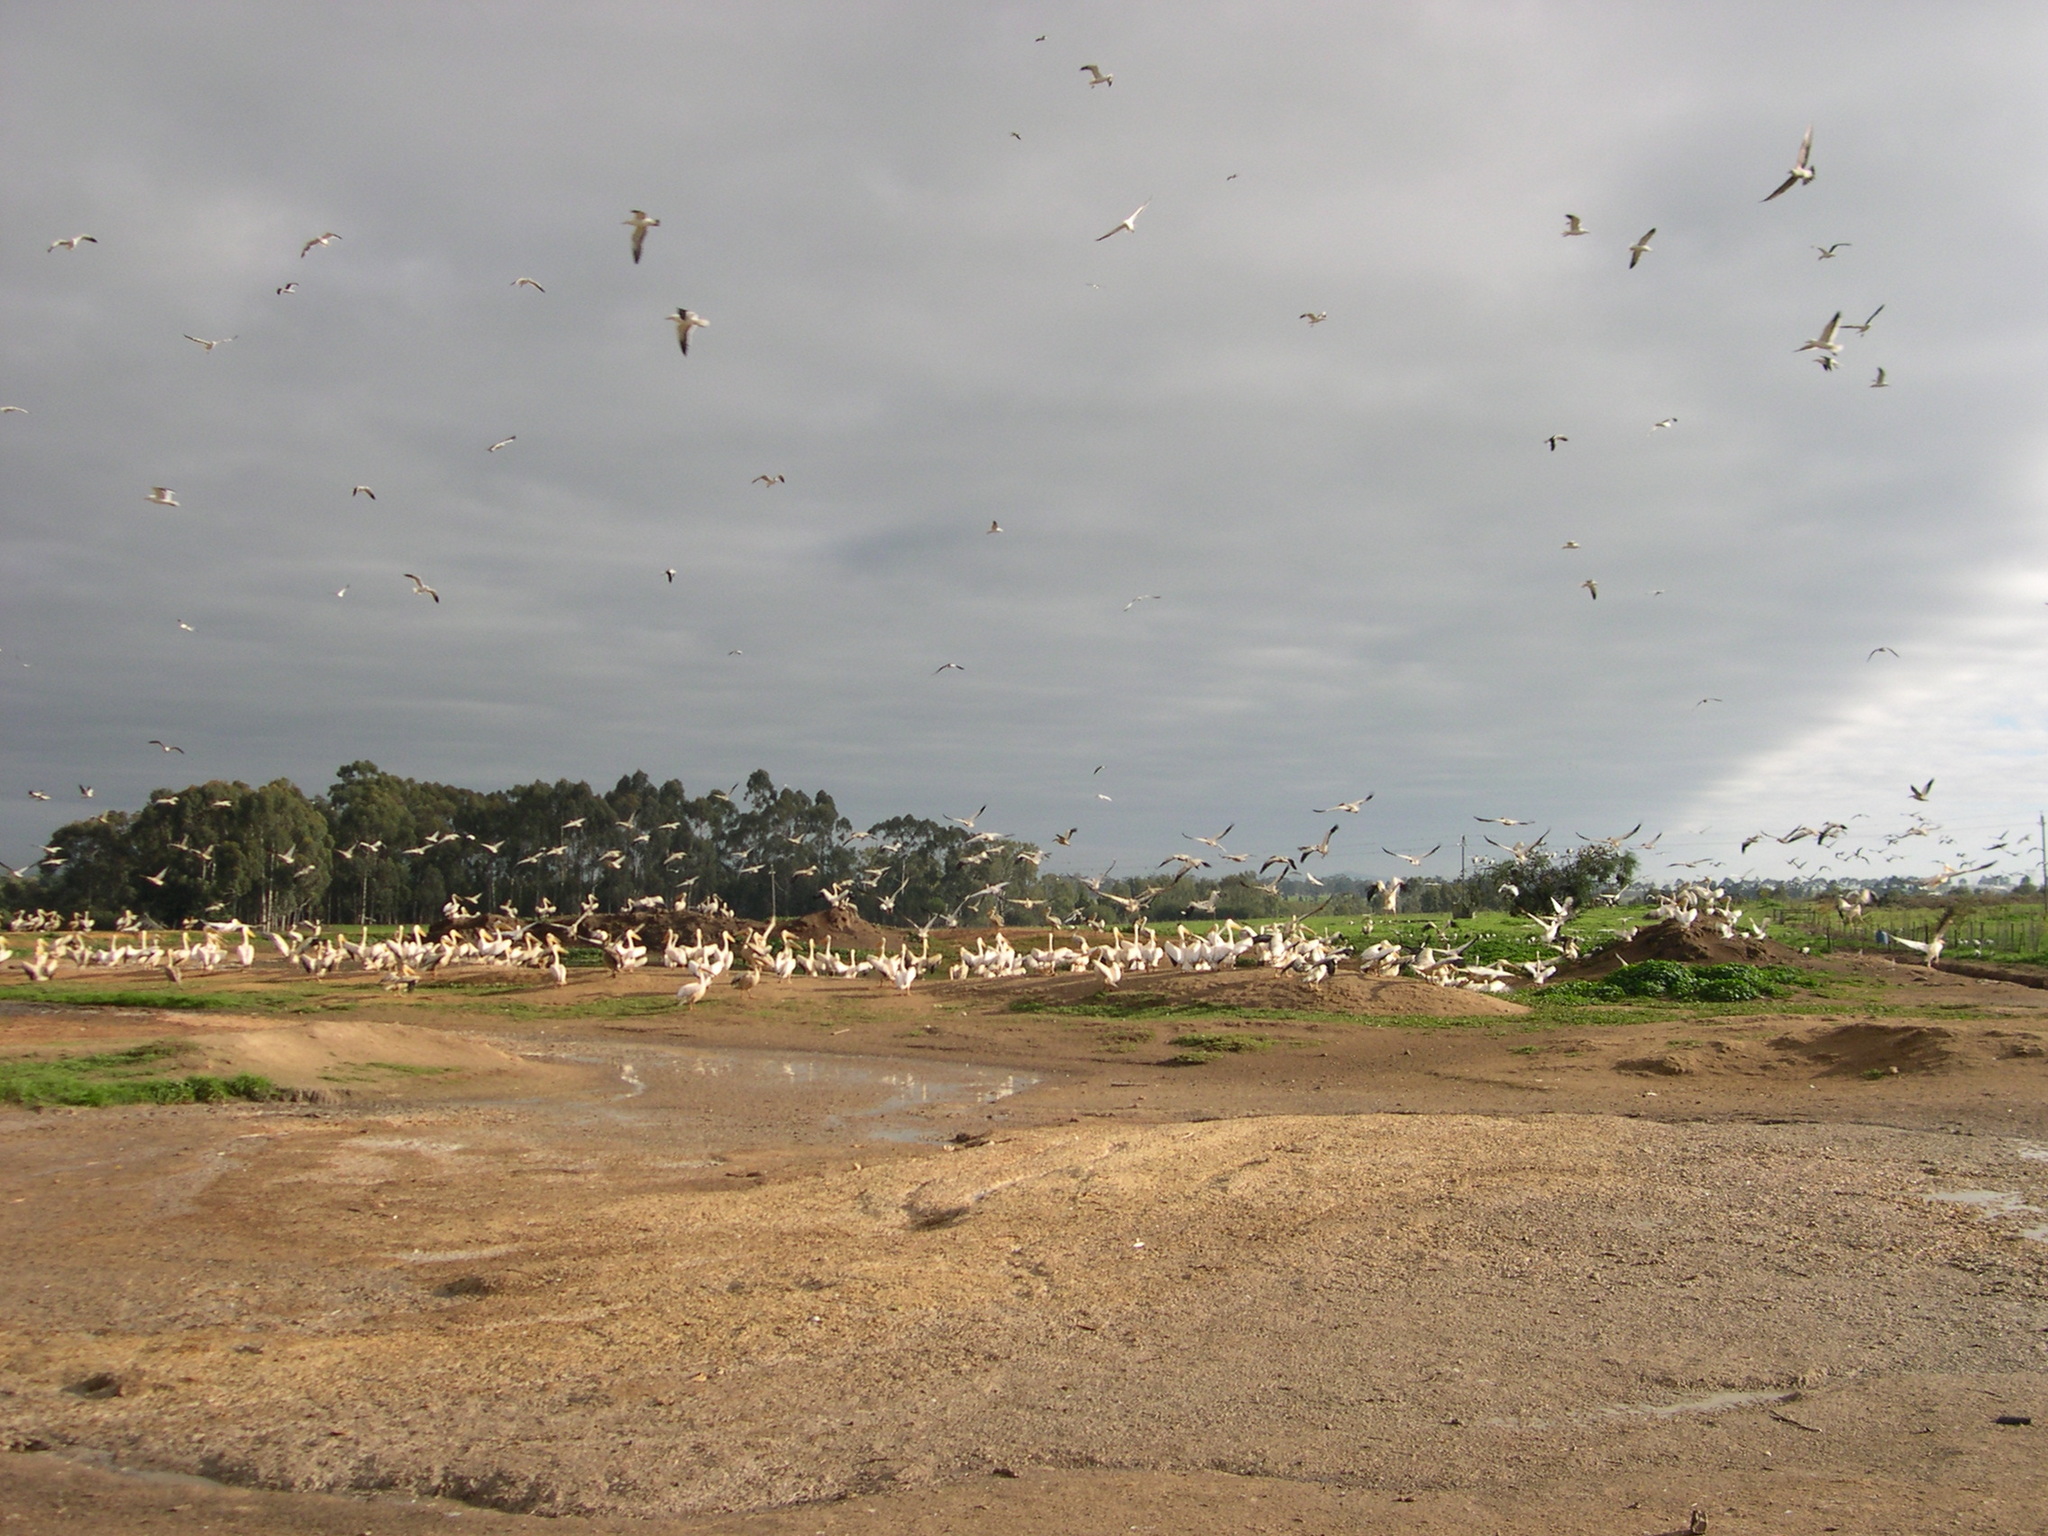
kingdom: Animalia
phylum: Chordata
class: Aves
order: Pelecaniformes
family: Pelecanidae
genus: Pelecanus
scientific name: Pelecanus onocrotalus
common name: Great white pelican
